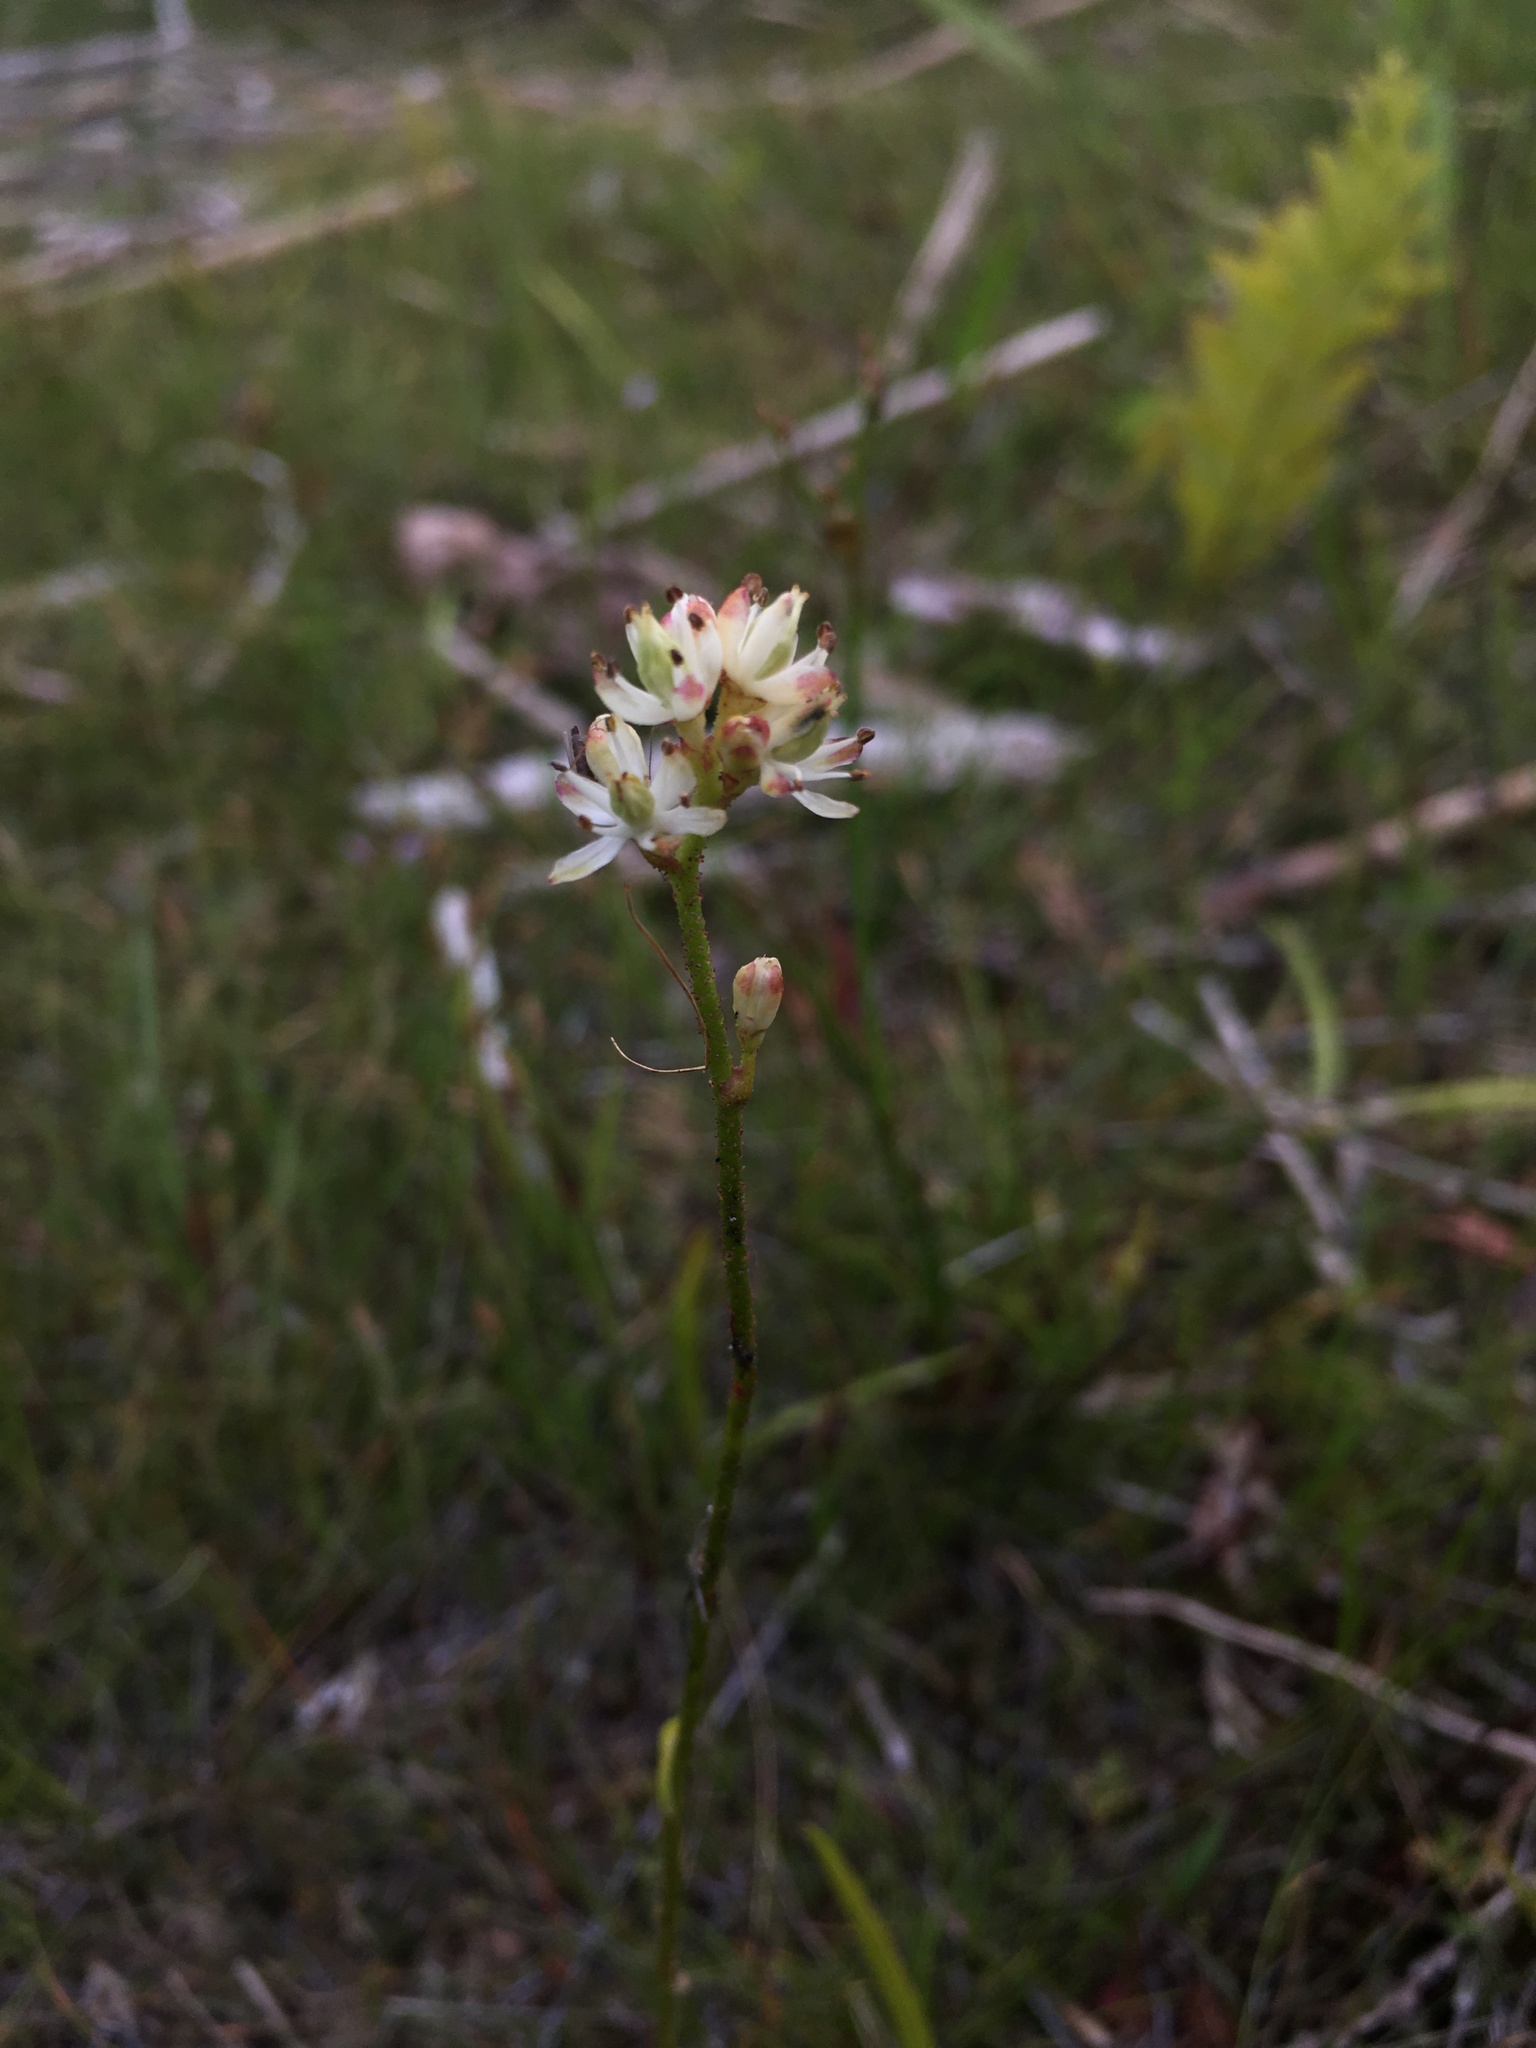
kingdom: Plantae
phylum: Tracheophyta
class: Liliopsida
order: Alismatales
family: Tofieldiaceae
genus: Triantha
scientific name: Triantha glutinosa
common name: Glutinous tofieldia
